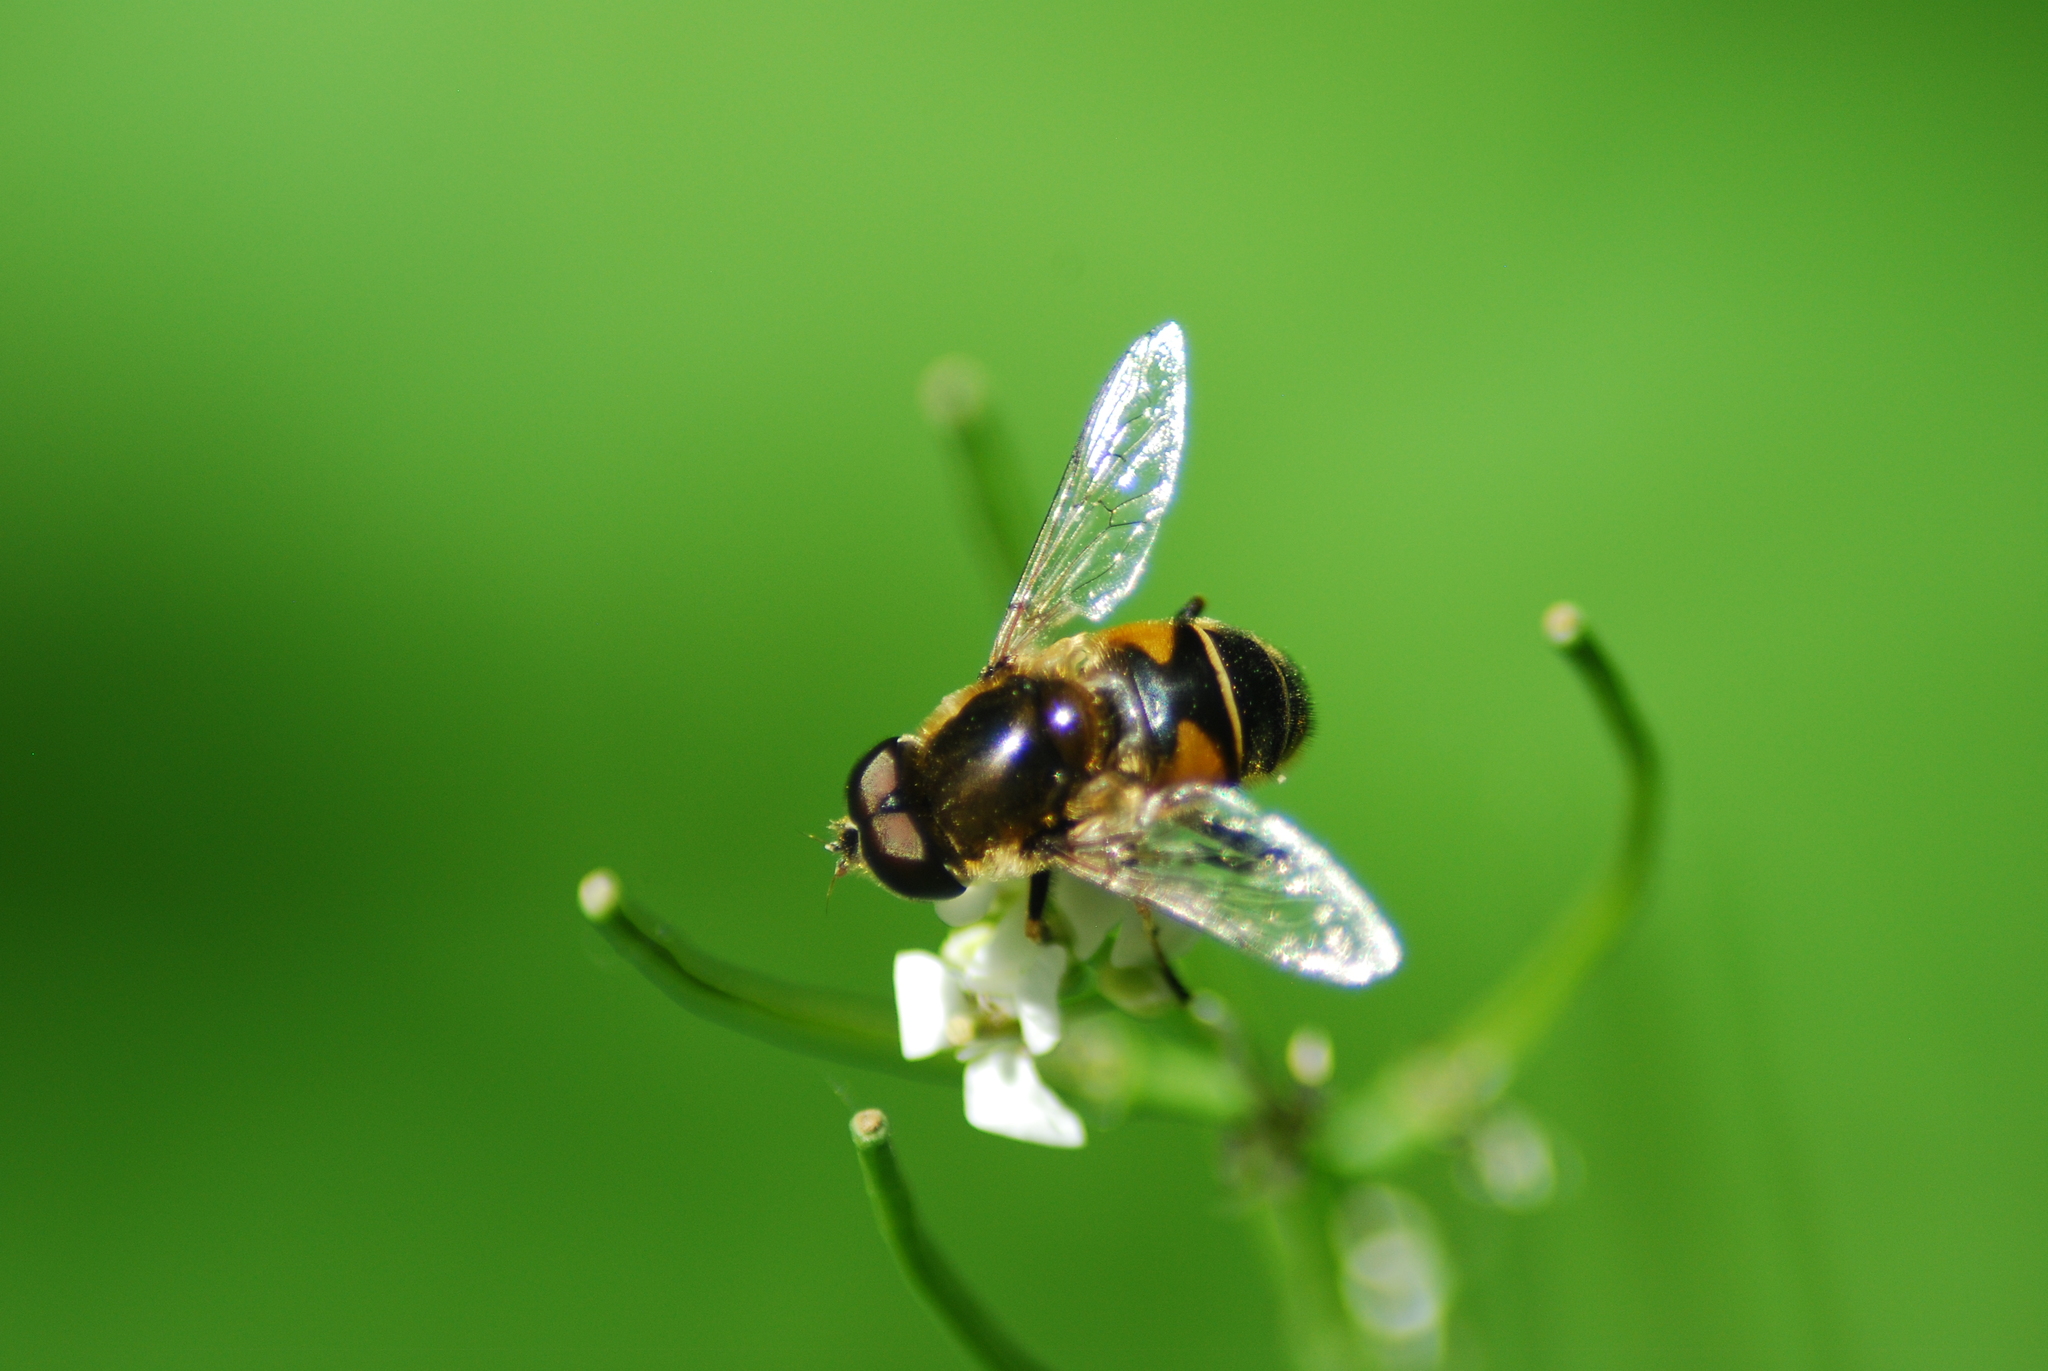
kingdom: Animalia
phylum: Arthropoda
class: Insecta
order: Diptera
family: Syrphidae
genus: Eristalis
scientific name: Eristalis tenax
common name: Drone fly
